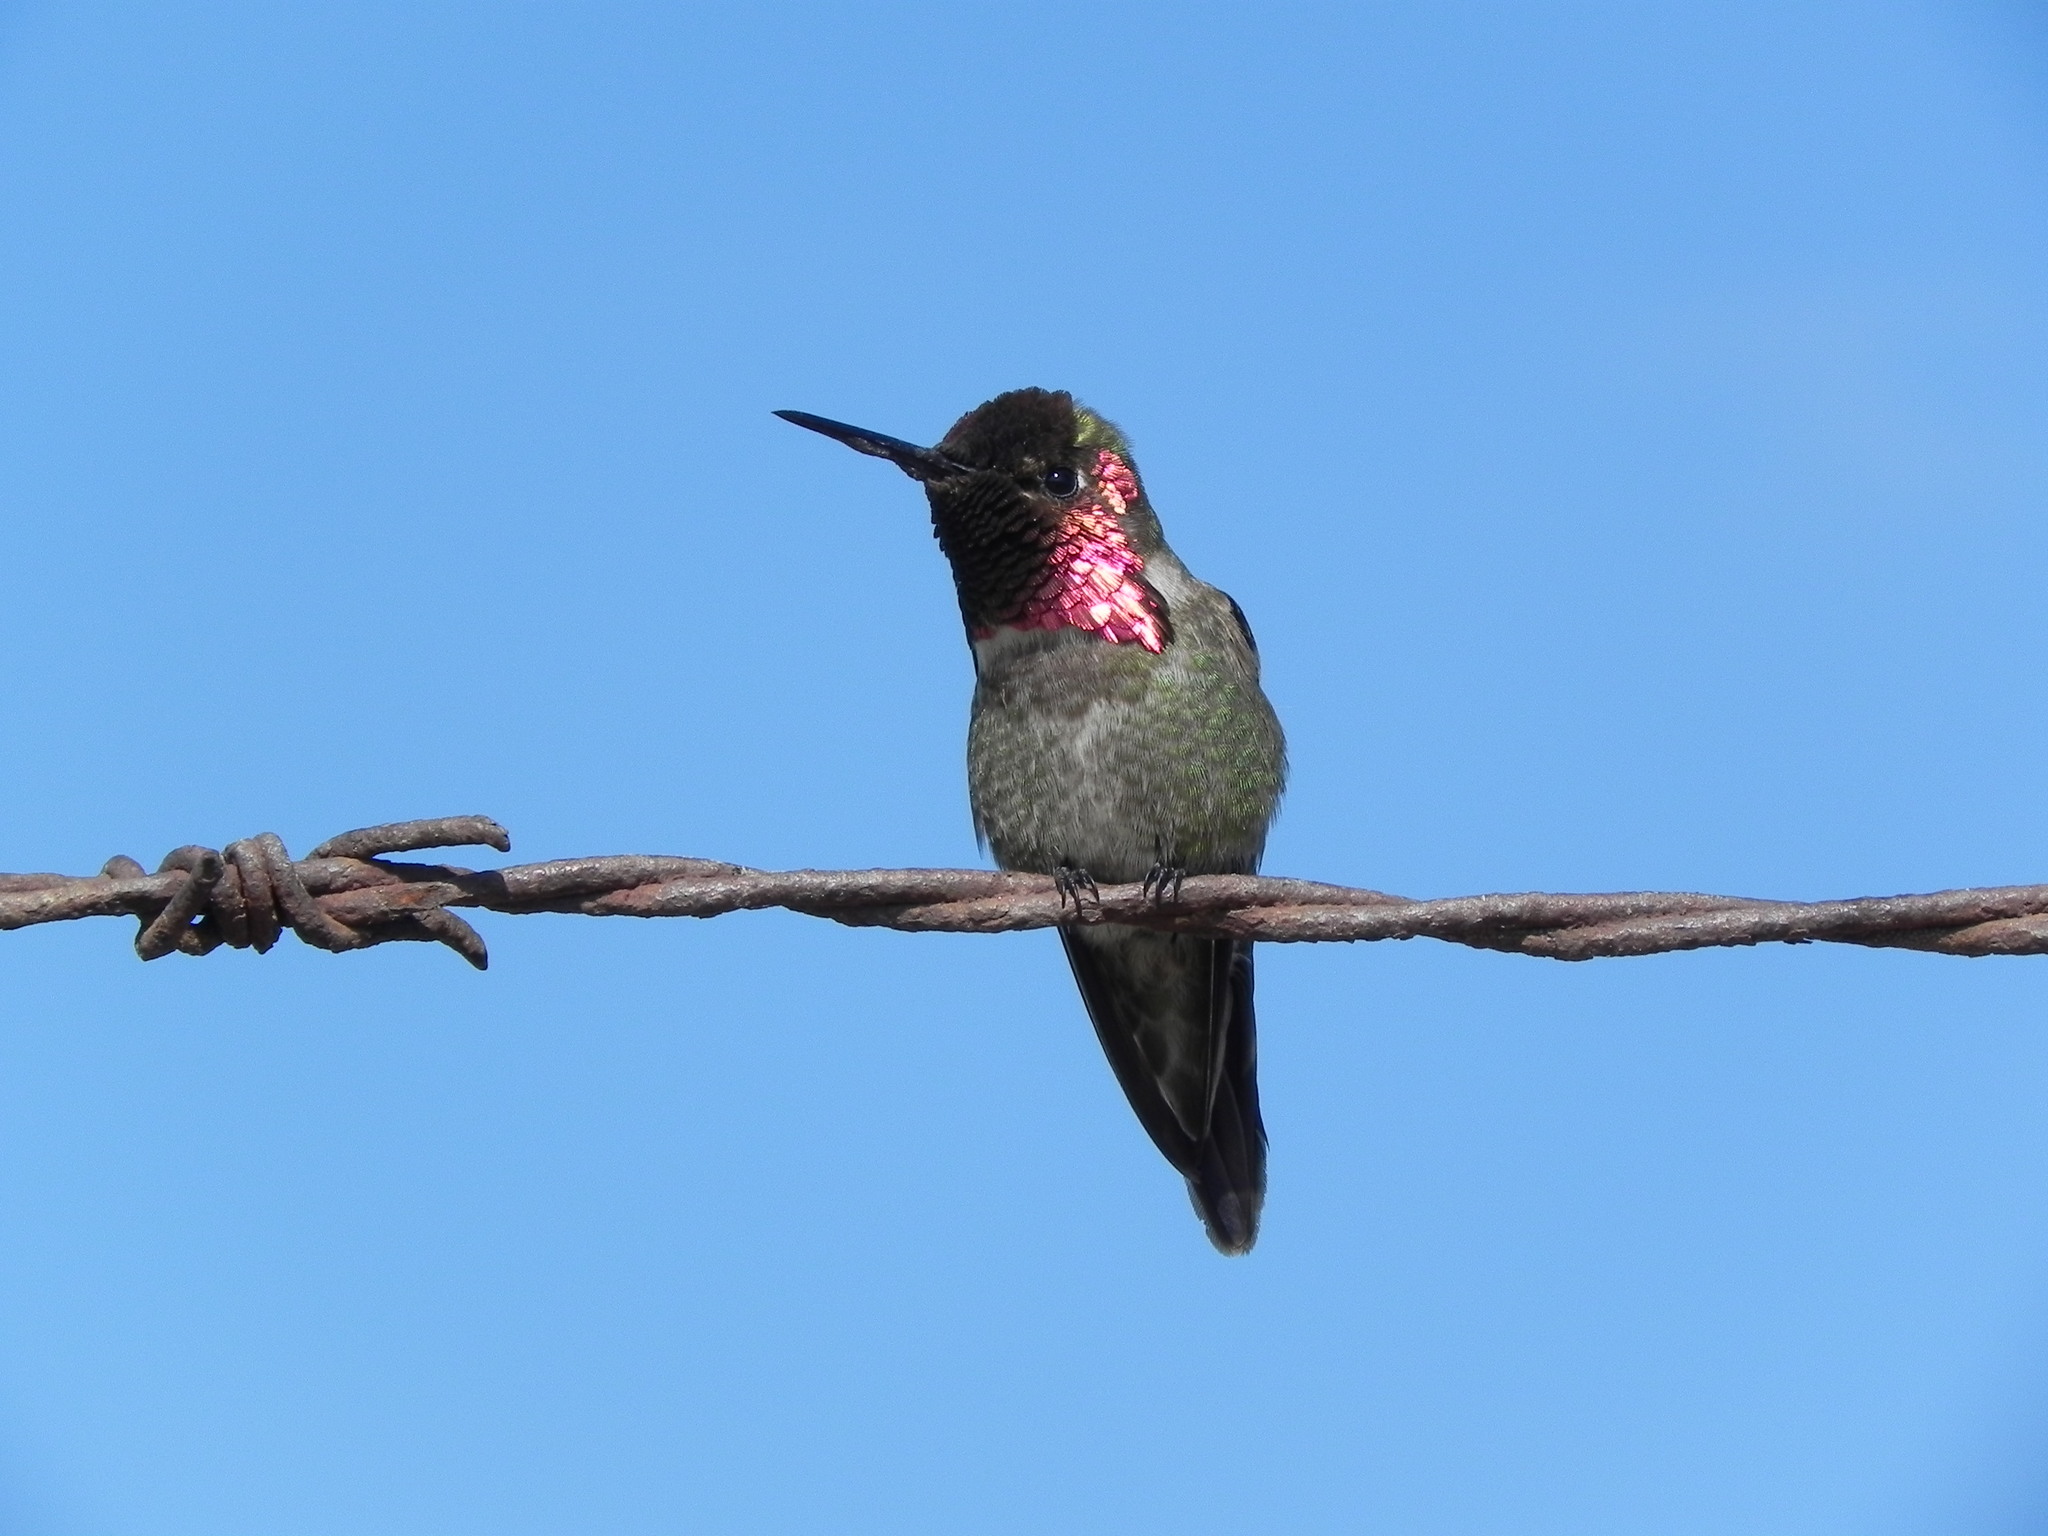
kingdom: Animalia
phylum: Chordata
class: Aves
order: Apodiformes
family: Trochilidae
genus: Calypte
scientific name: Calypte anna
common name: Anna's hummingbird
